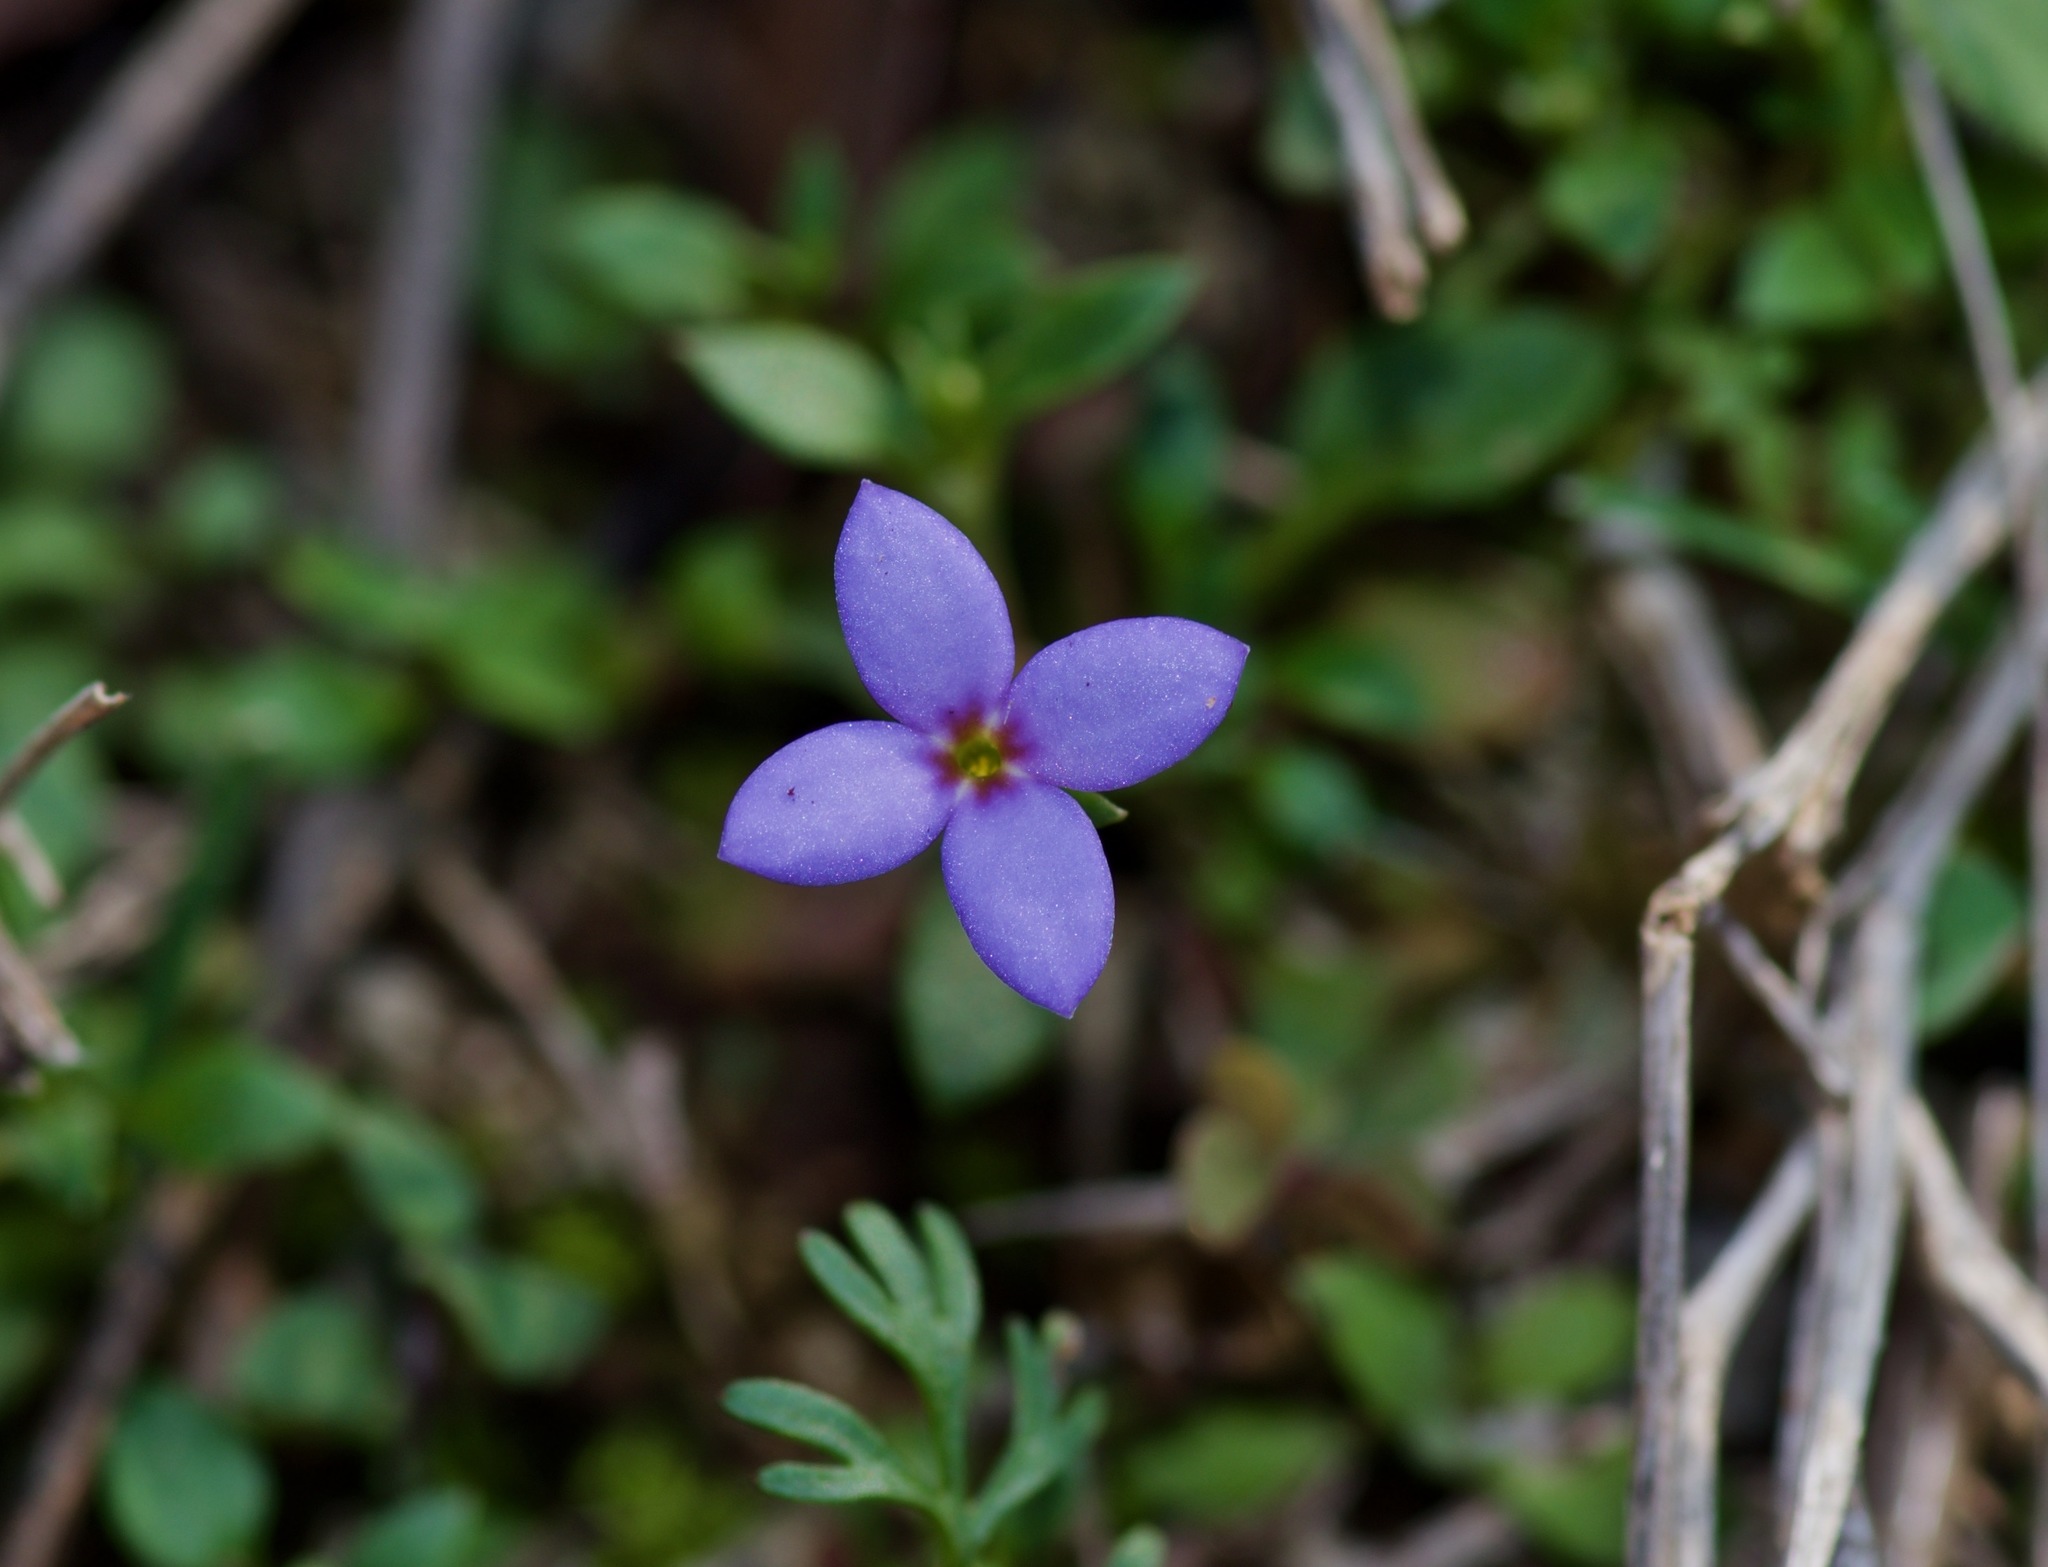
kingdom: Plantae
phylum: Tracheophyta
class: Magnoliopsida
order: Gentianales
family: Rubiaceae
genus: Houstonia
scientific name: Houstonia pusilla
